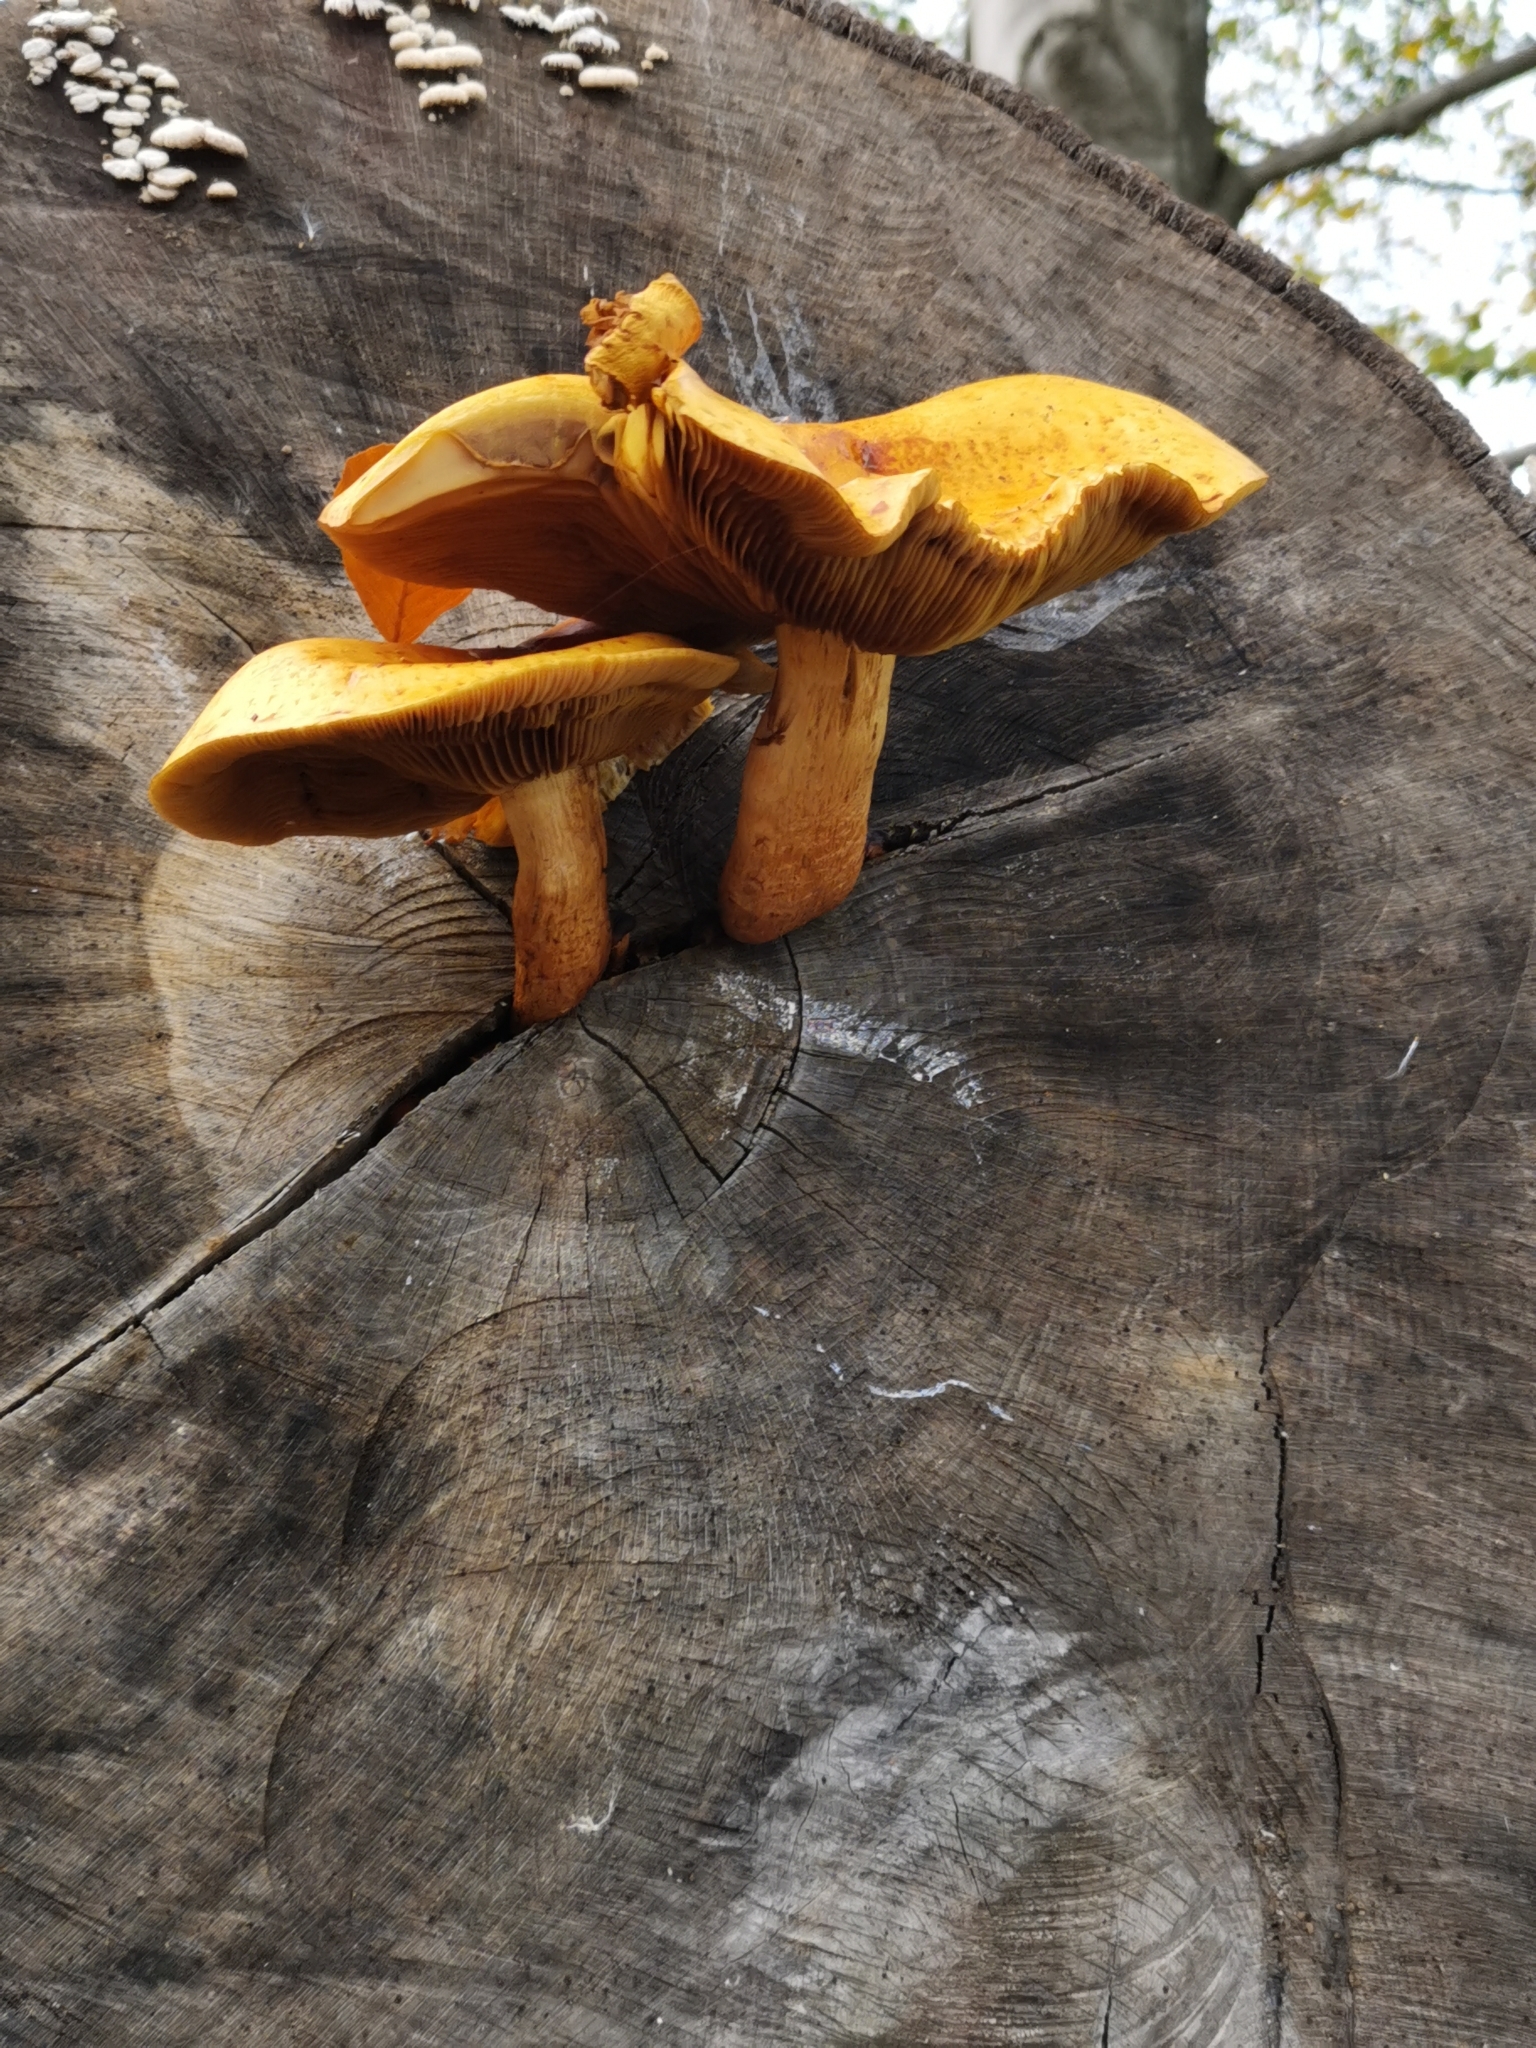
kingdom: Fungi
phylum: Basidiomycota
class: Agaricomycetes
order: Agaricales
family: Strophariaceae
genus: Pholiota
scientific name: Pholiota aurivella
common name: Golden scalycap
